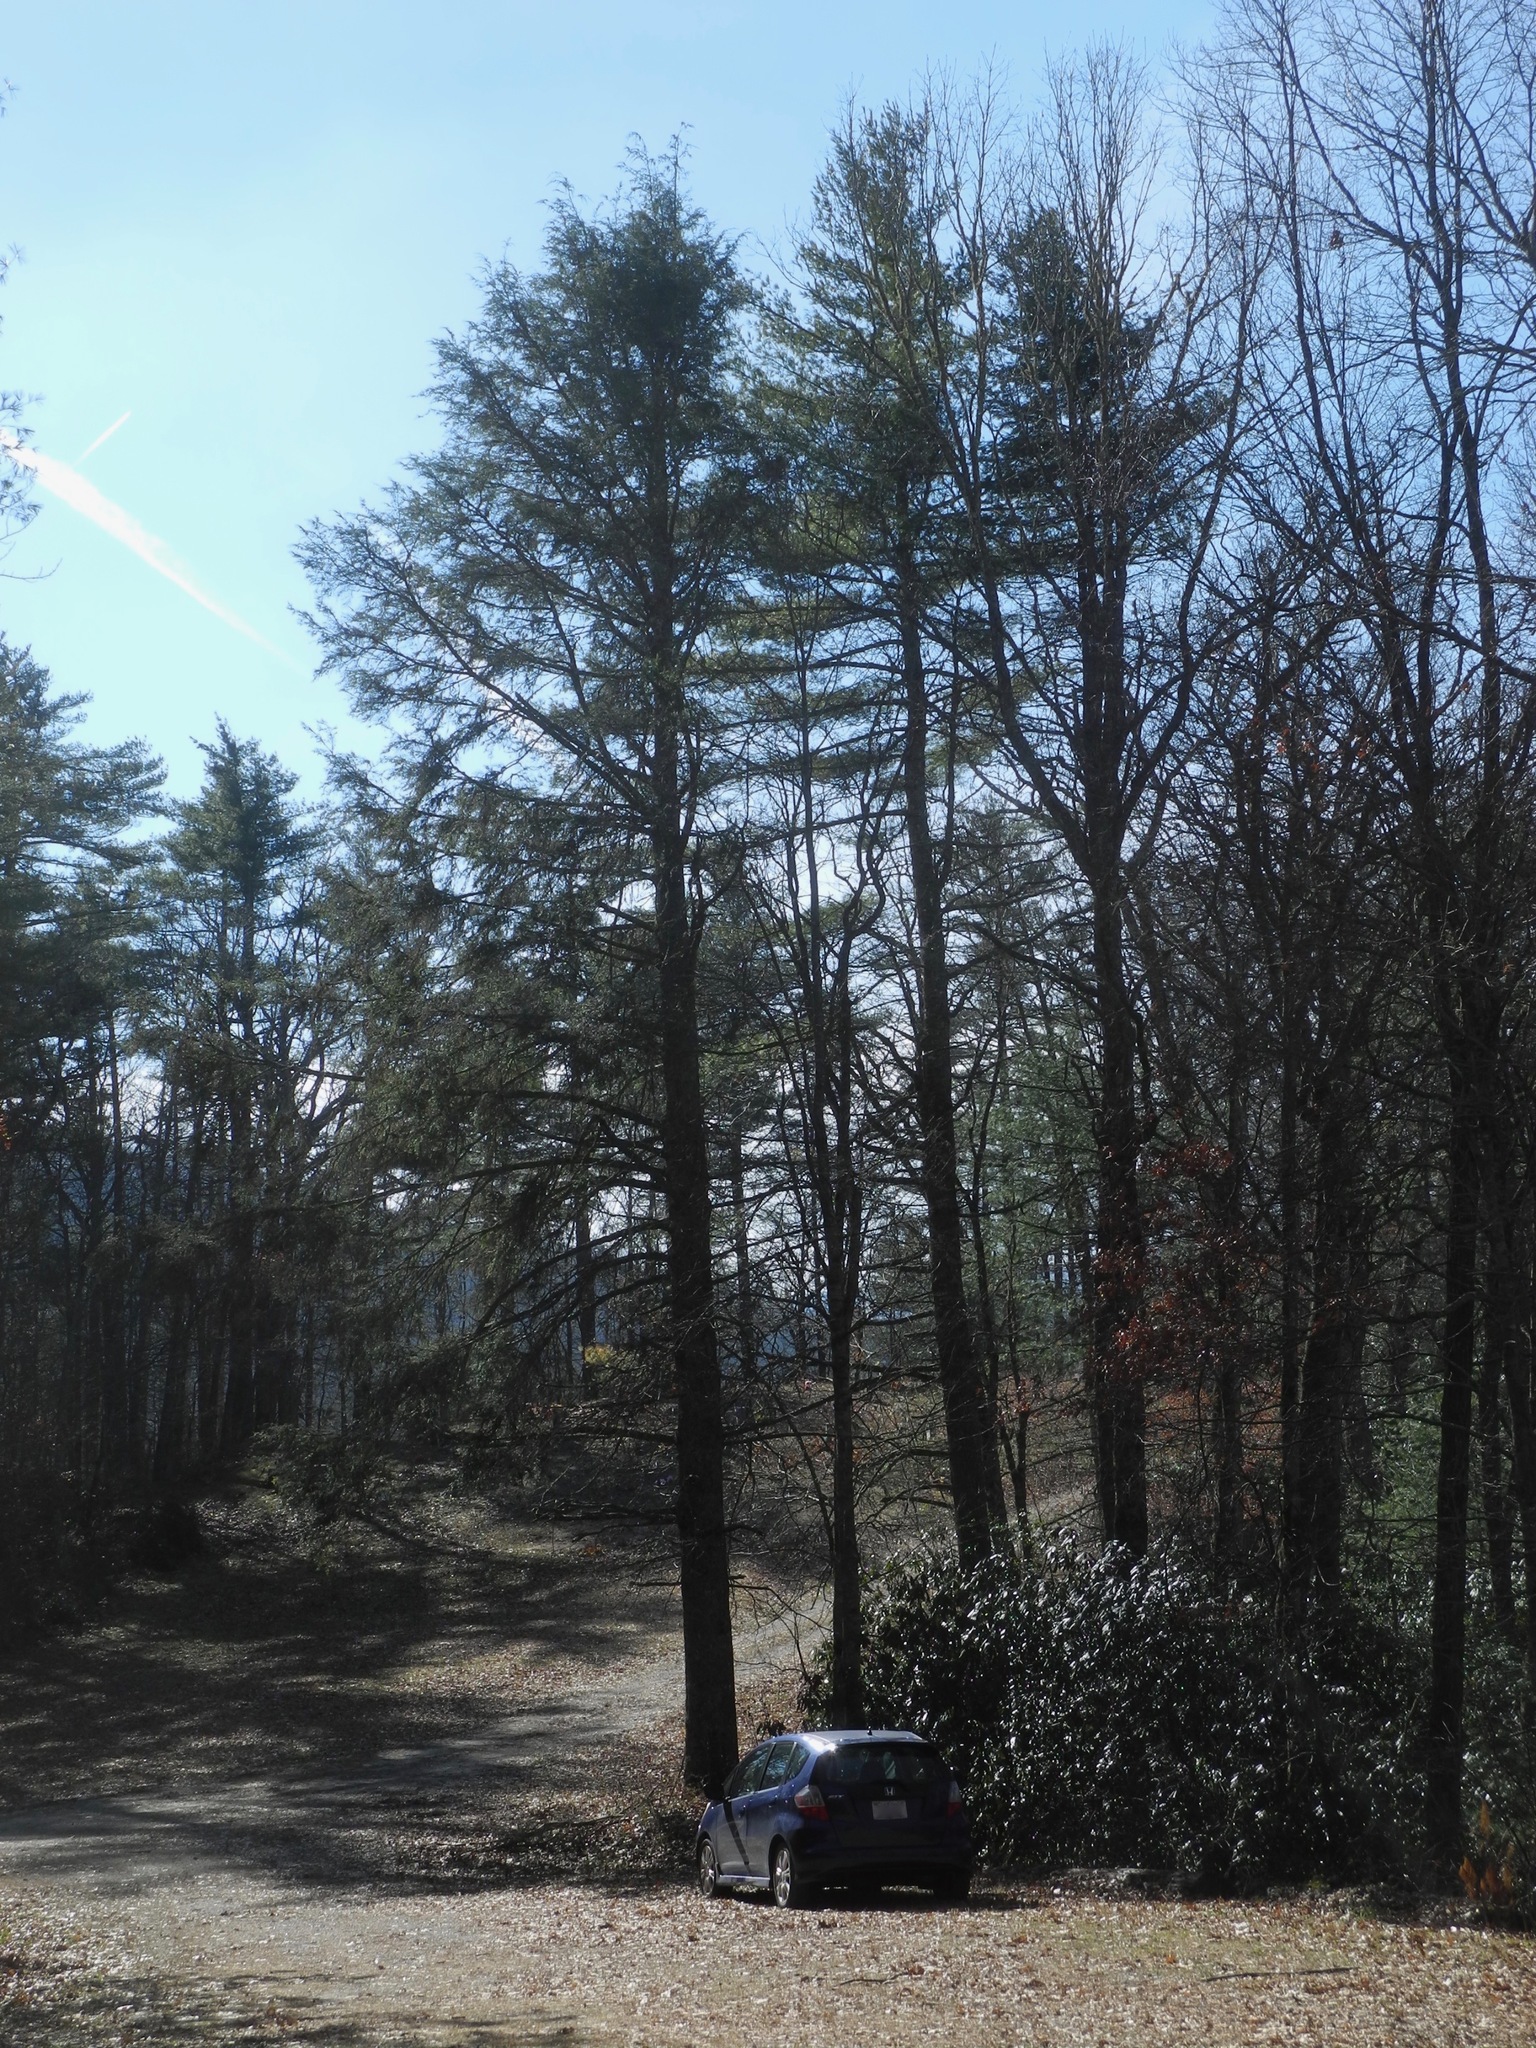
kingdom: Plantae
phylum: Tracheophyta
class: Pinopsida
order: Pinales
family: Pinaceae
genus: Tsuga
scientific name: Tsuga canadensis
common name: Eastern hemlock
